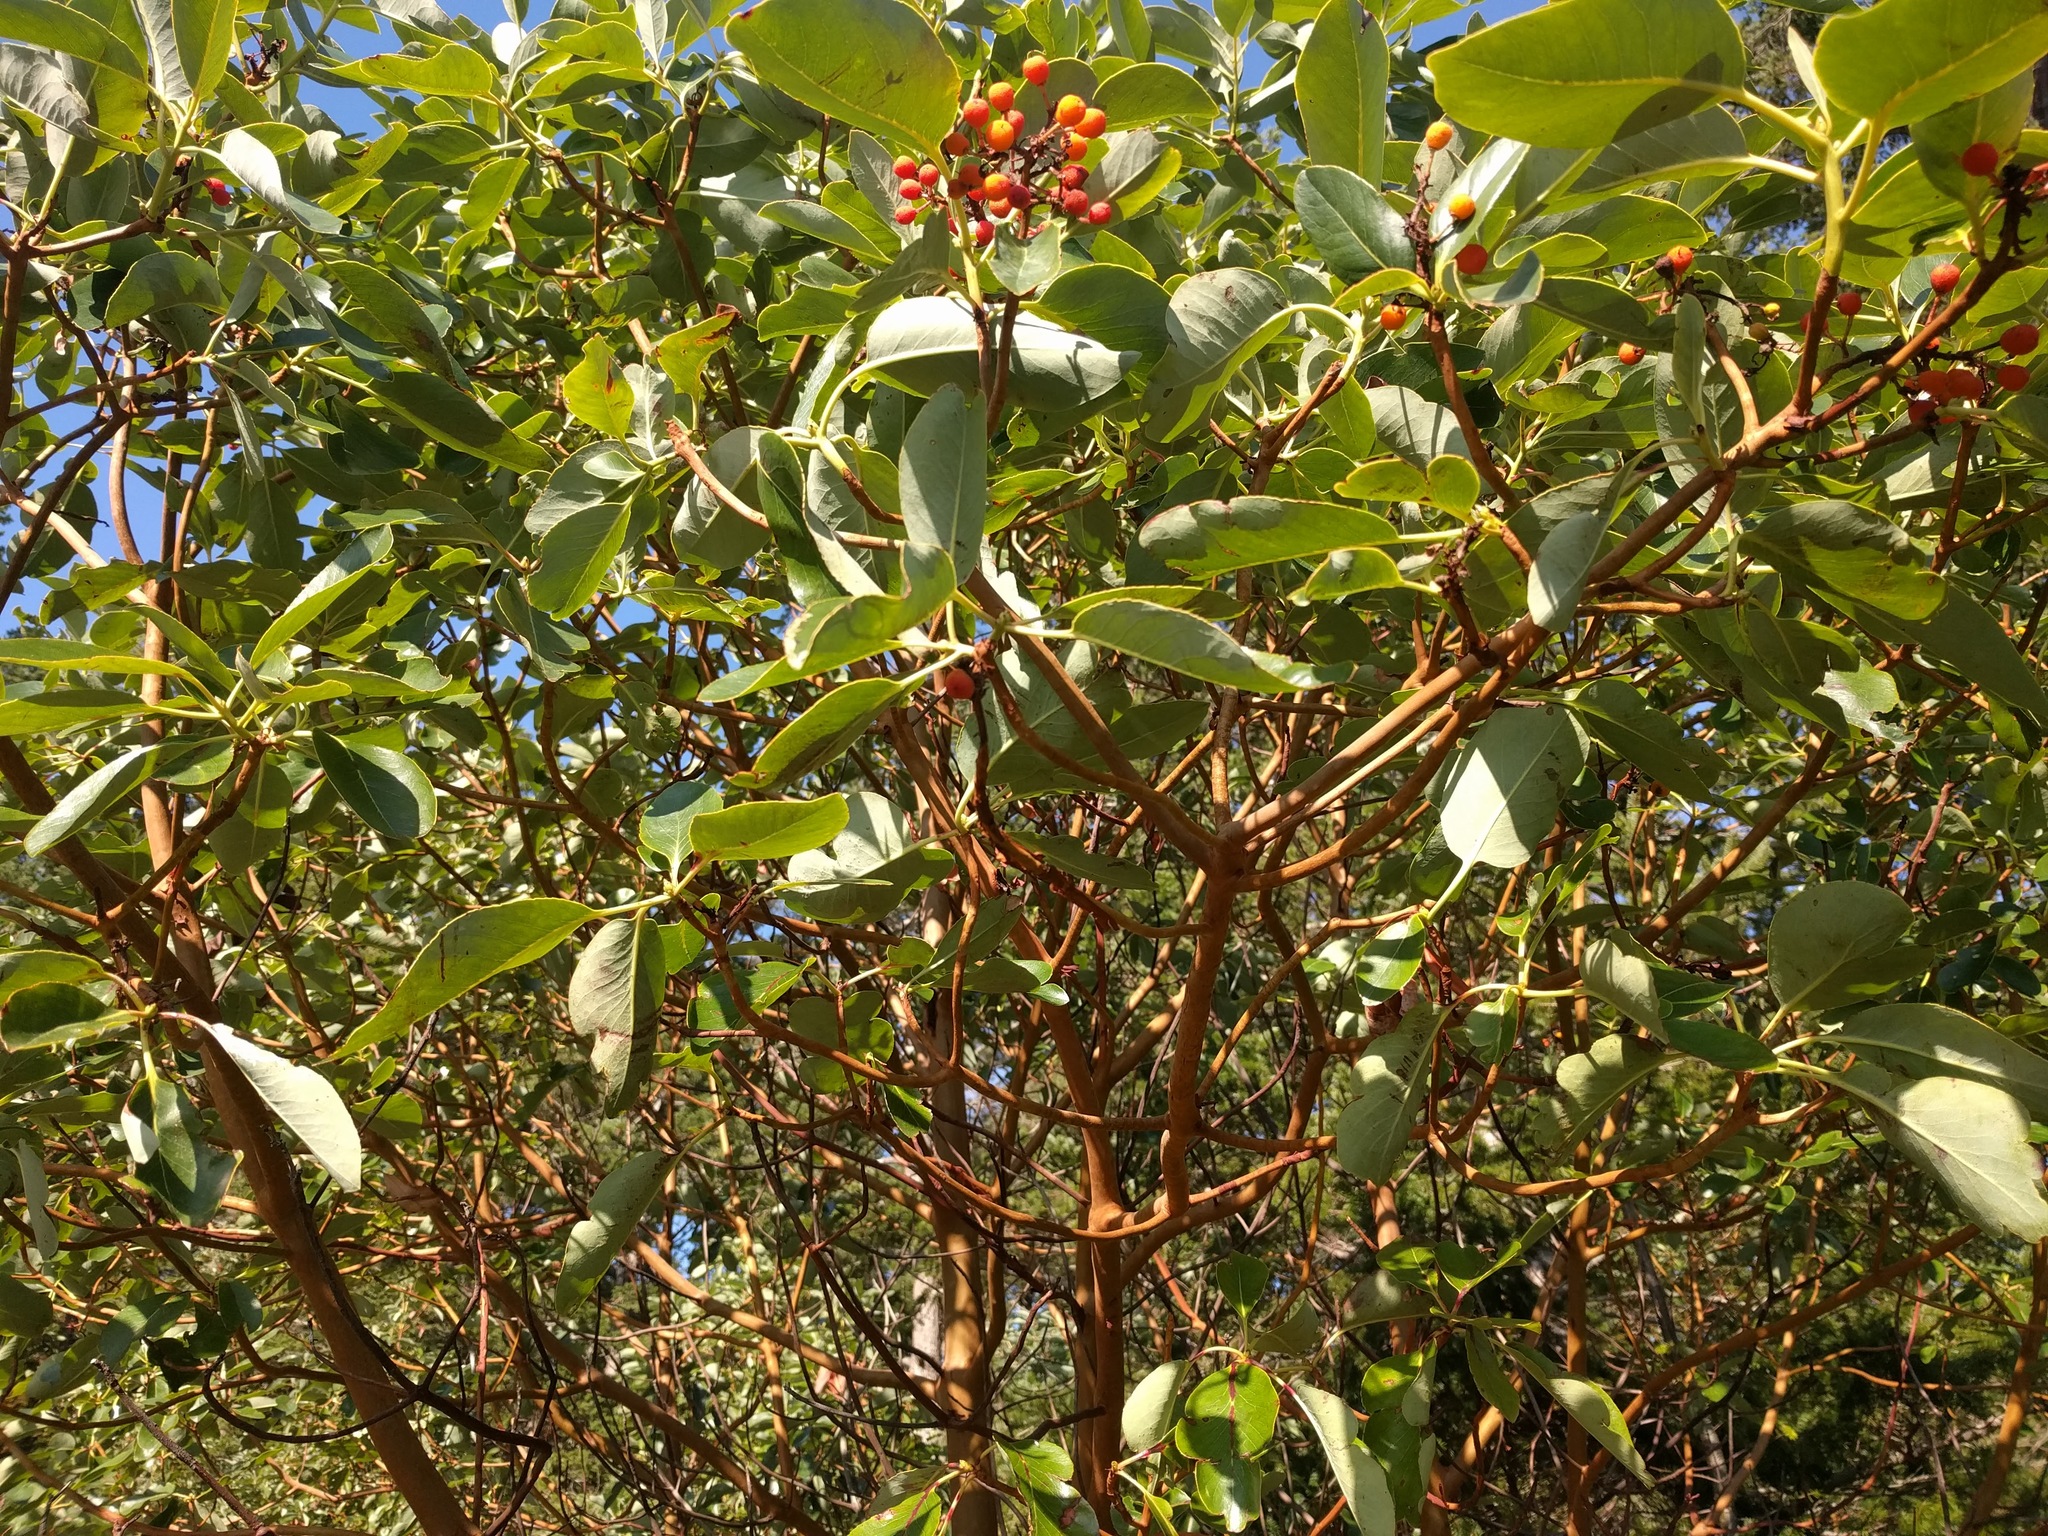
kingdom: Plantae
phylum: Tracheophyta
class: Magnoliopsida
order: Ericales
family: Ericaceae
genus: Arbutus
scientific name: Arbutus menziesii
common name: Pacific madrone
